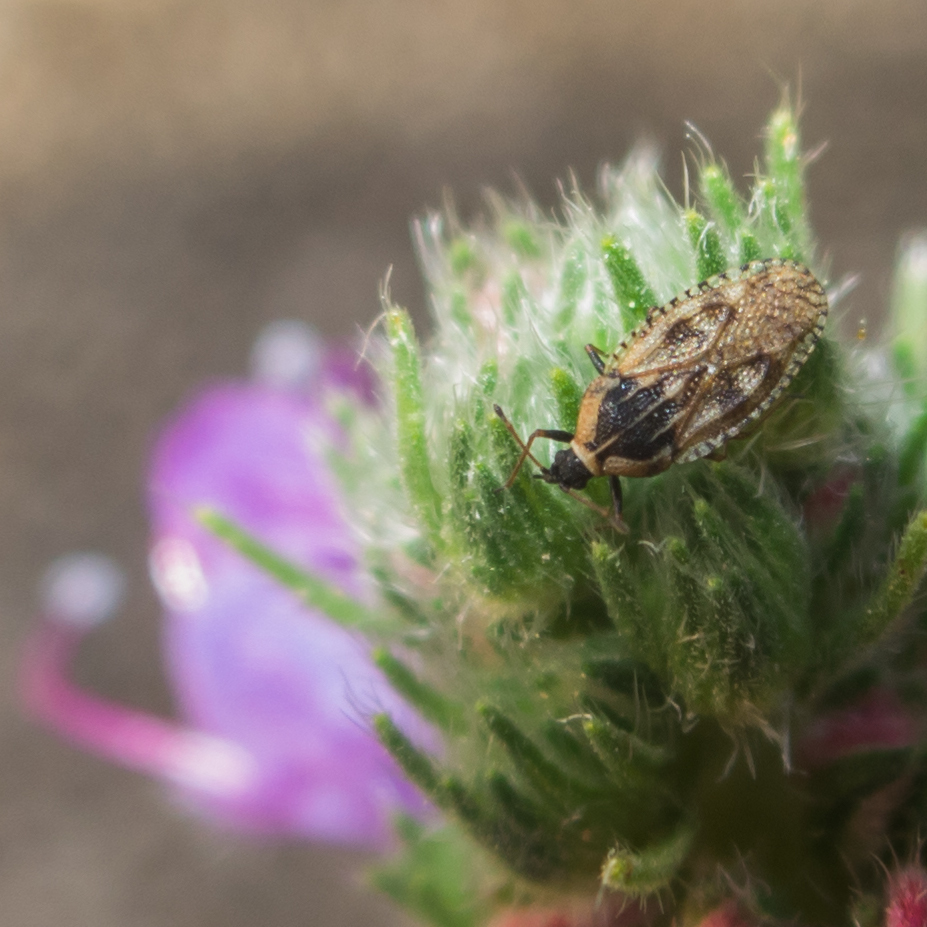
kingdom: Animalia
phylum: Arthropoda
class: Insecta
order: Hemiptera
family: Tingidae
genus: Dictyla
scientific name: Dictyla echii
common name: Lace bug
